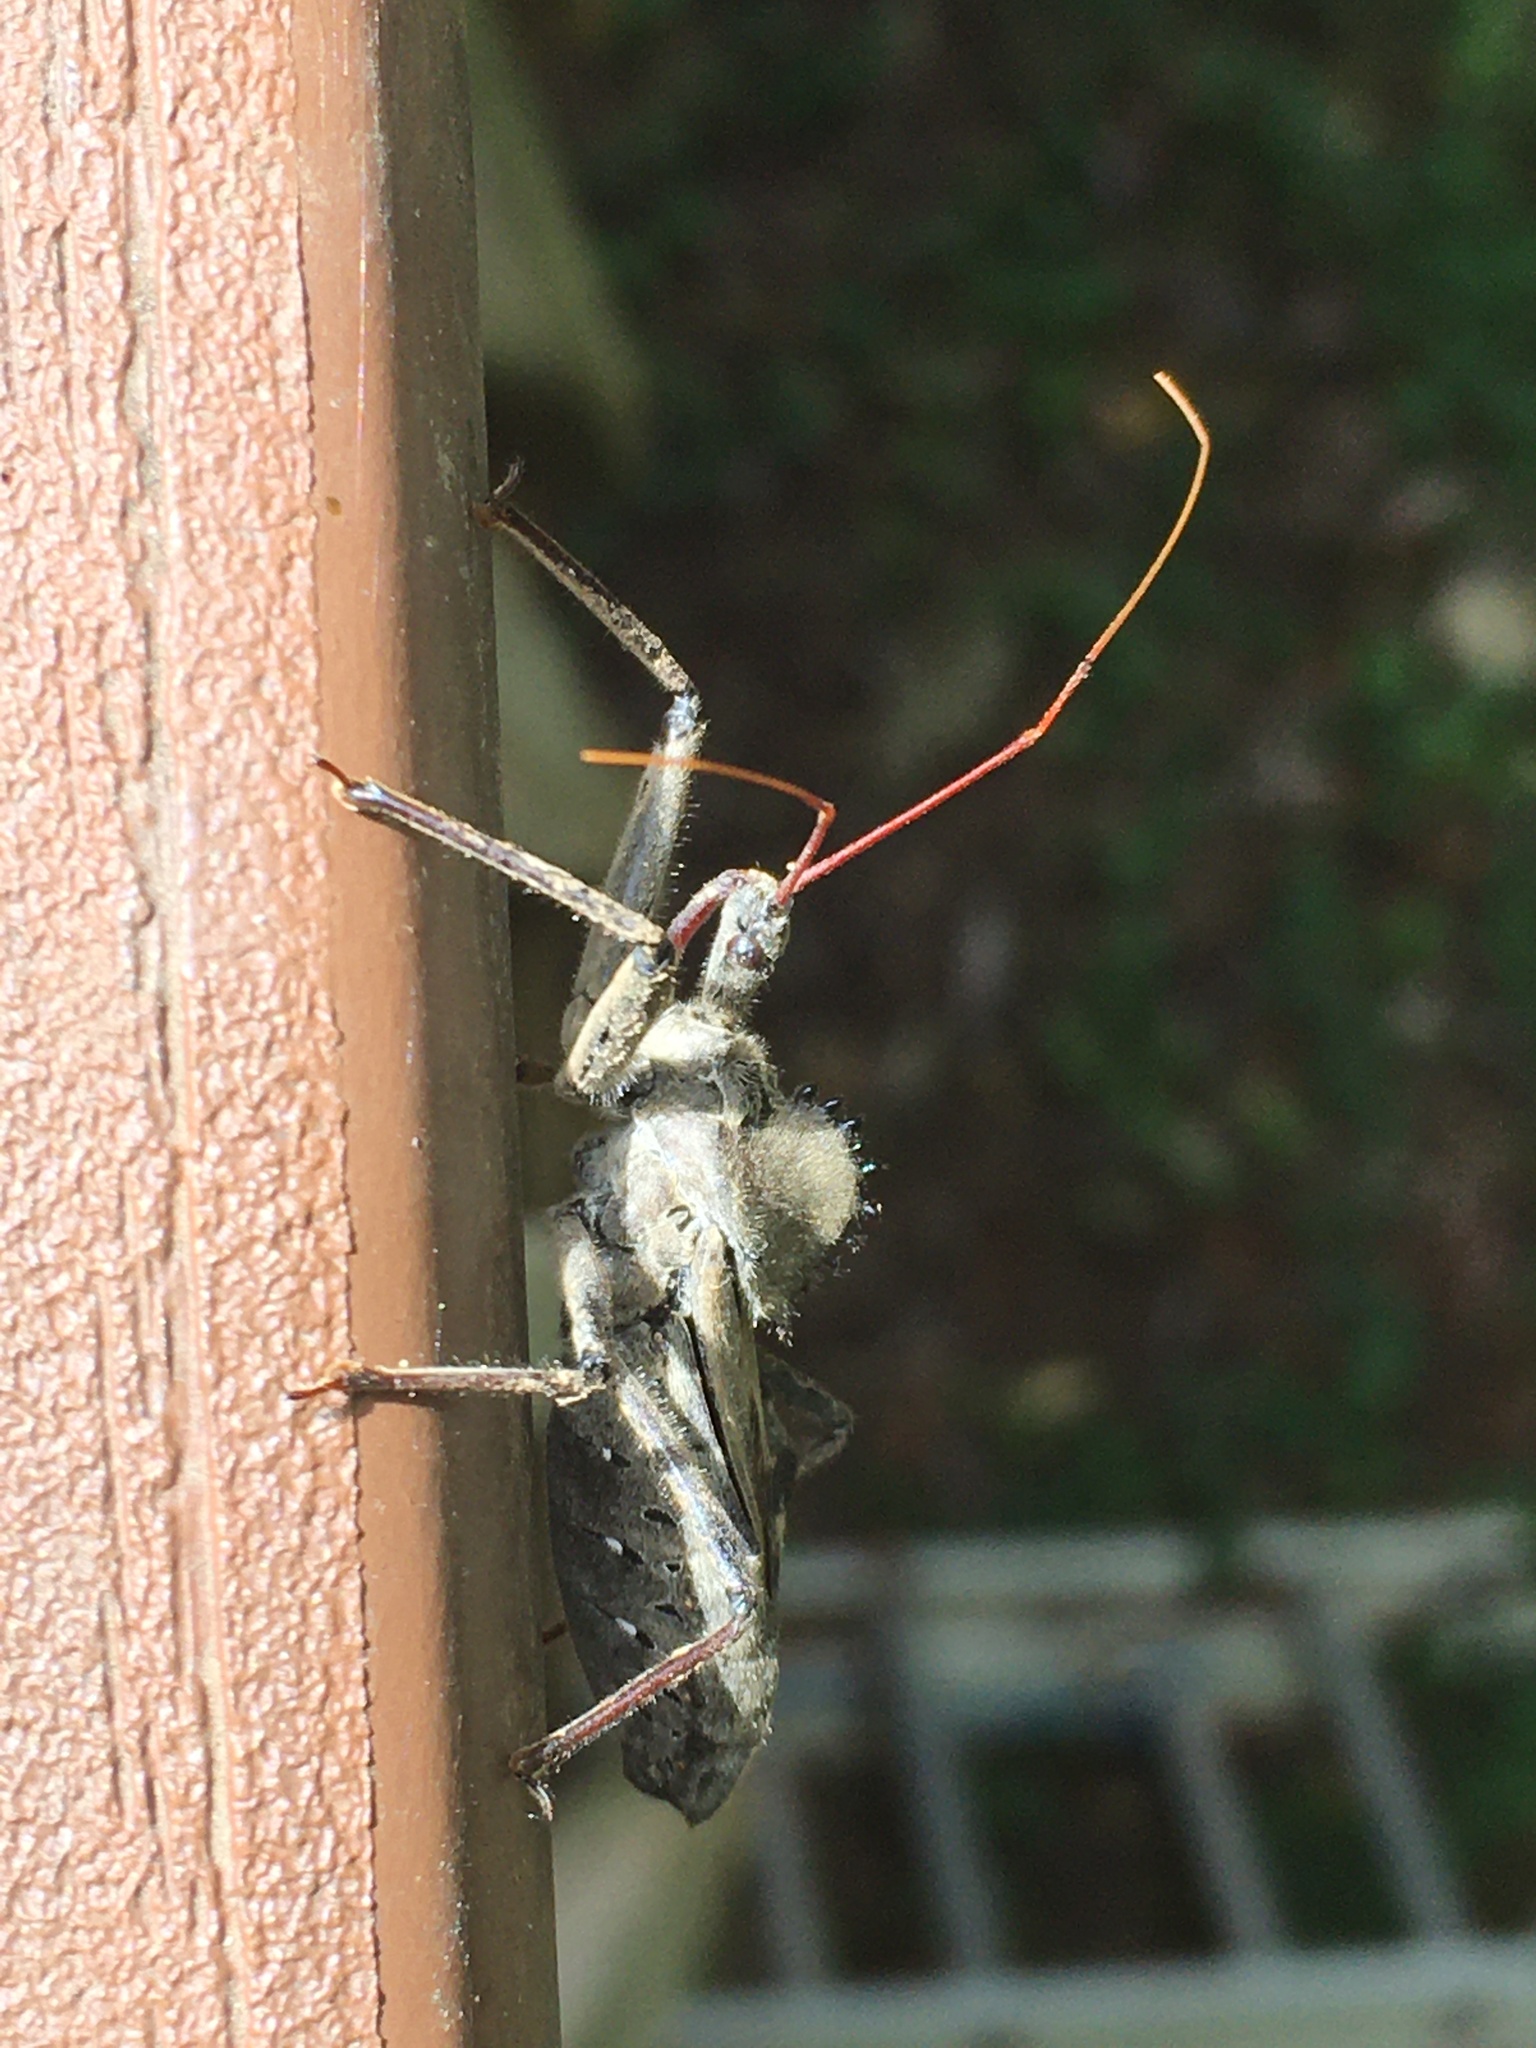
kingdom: Animalia
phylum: Arthropoda
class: Insecta
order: Hemiptera
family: Reduviidae
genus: Arilus
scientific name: Arilus cristatus
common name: North american wheel bug
